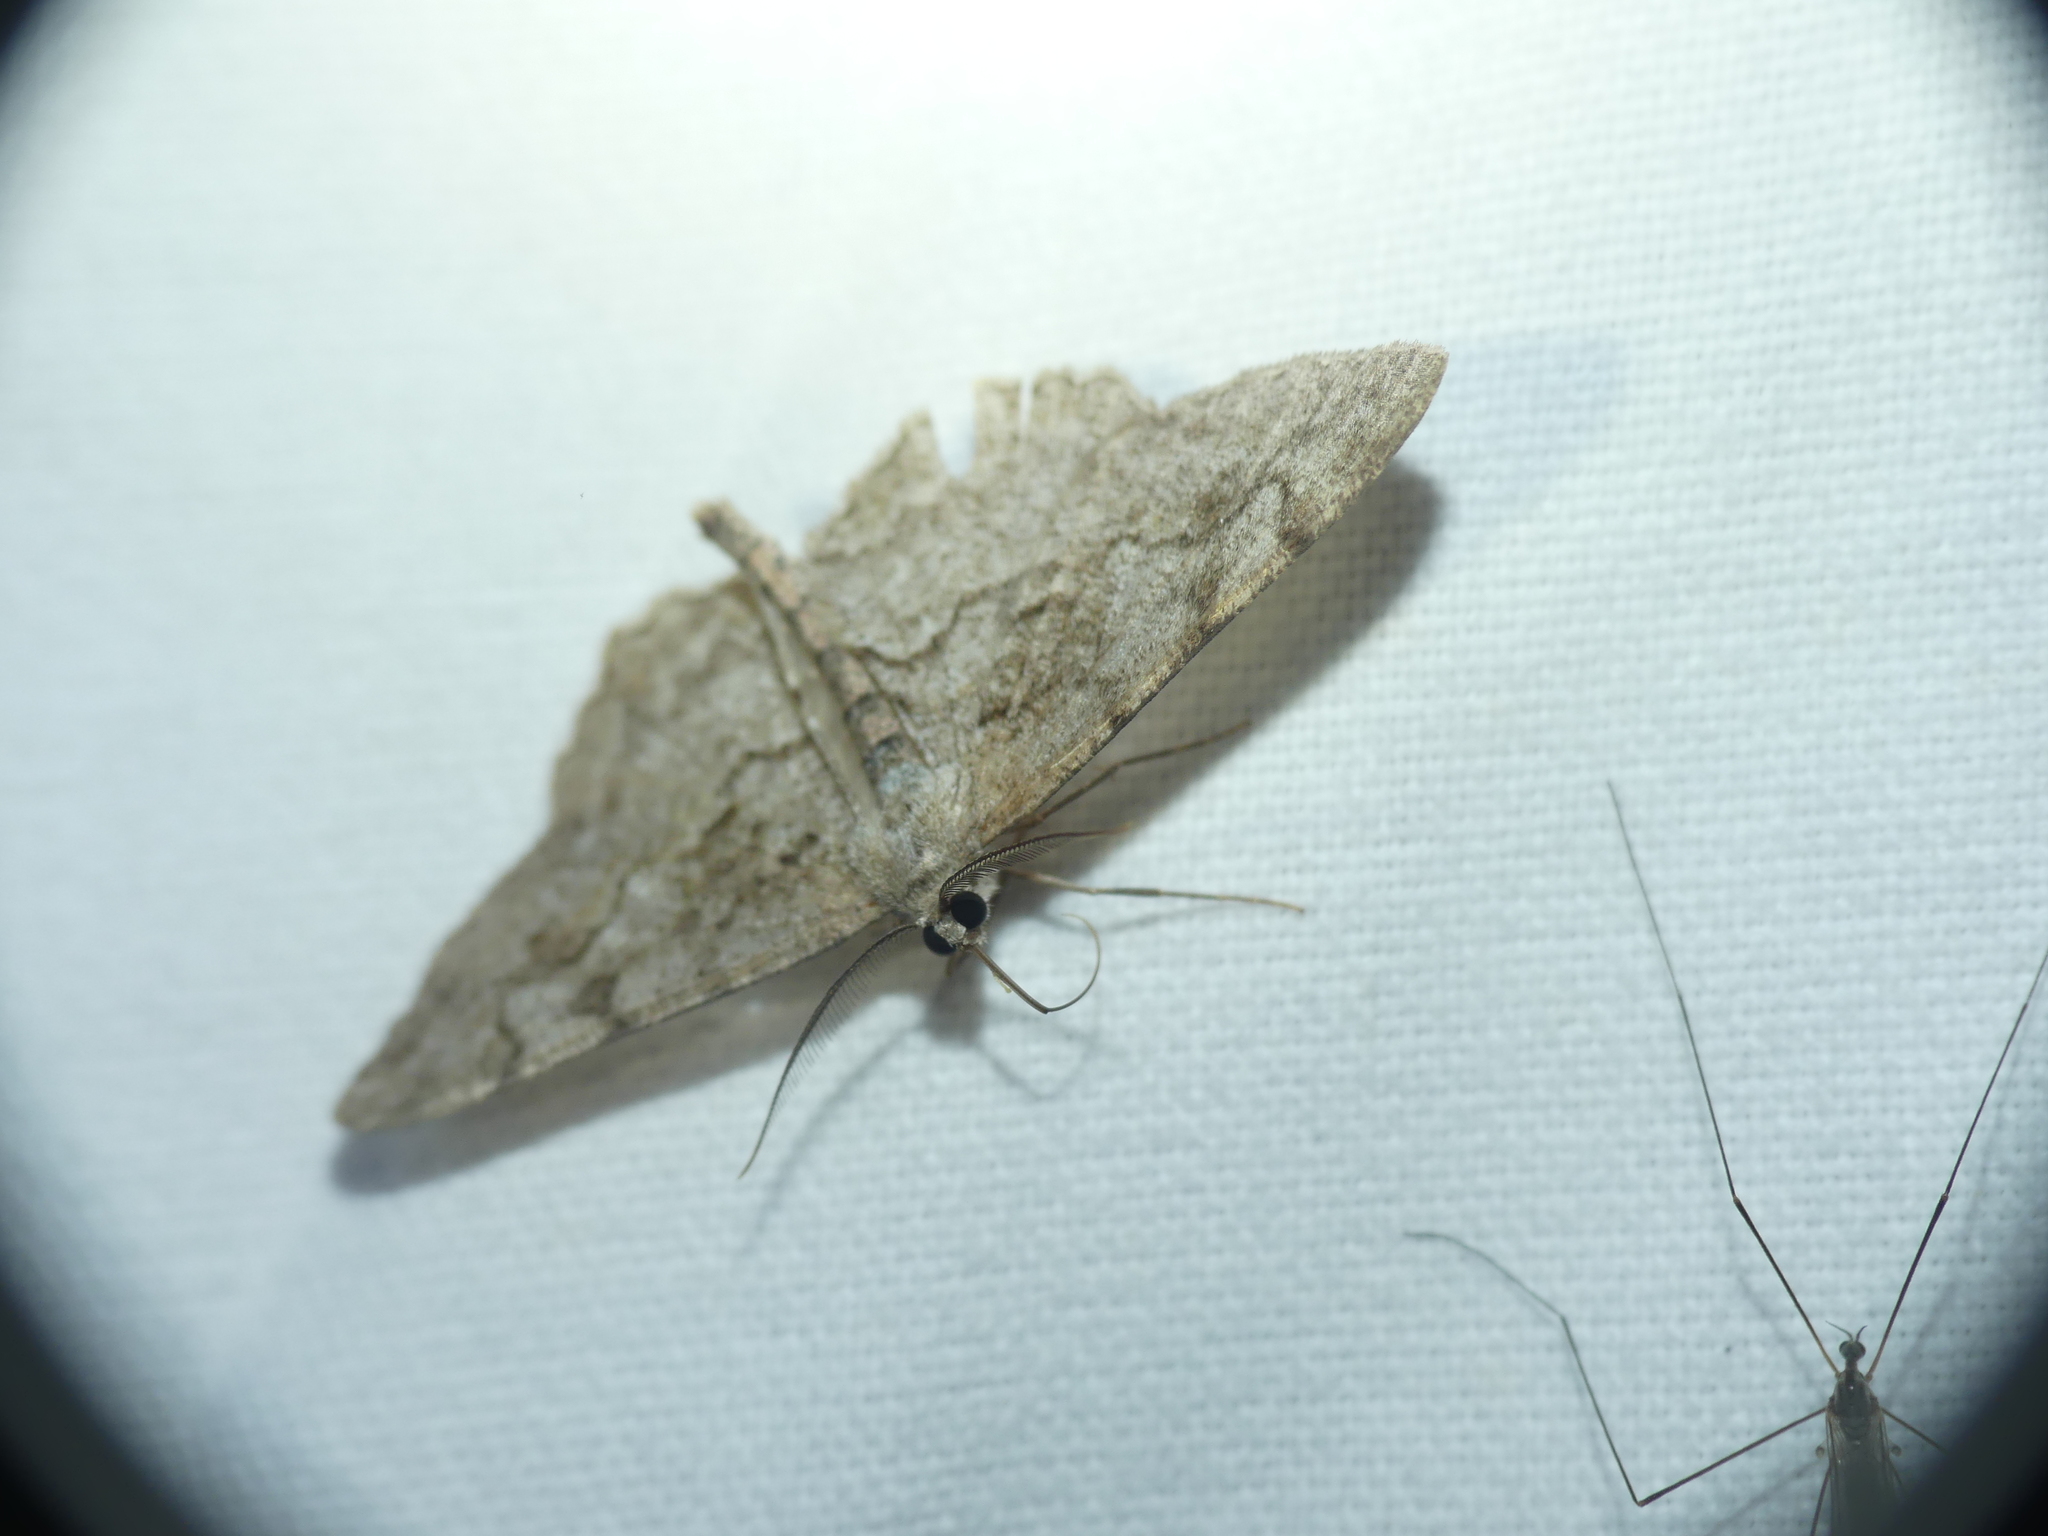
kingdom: Animalia
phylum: Arthropoda
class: Insecta
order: Lepidoptera
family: Geometridae
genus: Alcis
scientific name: Alcis repandata
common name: Mottled beauty
